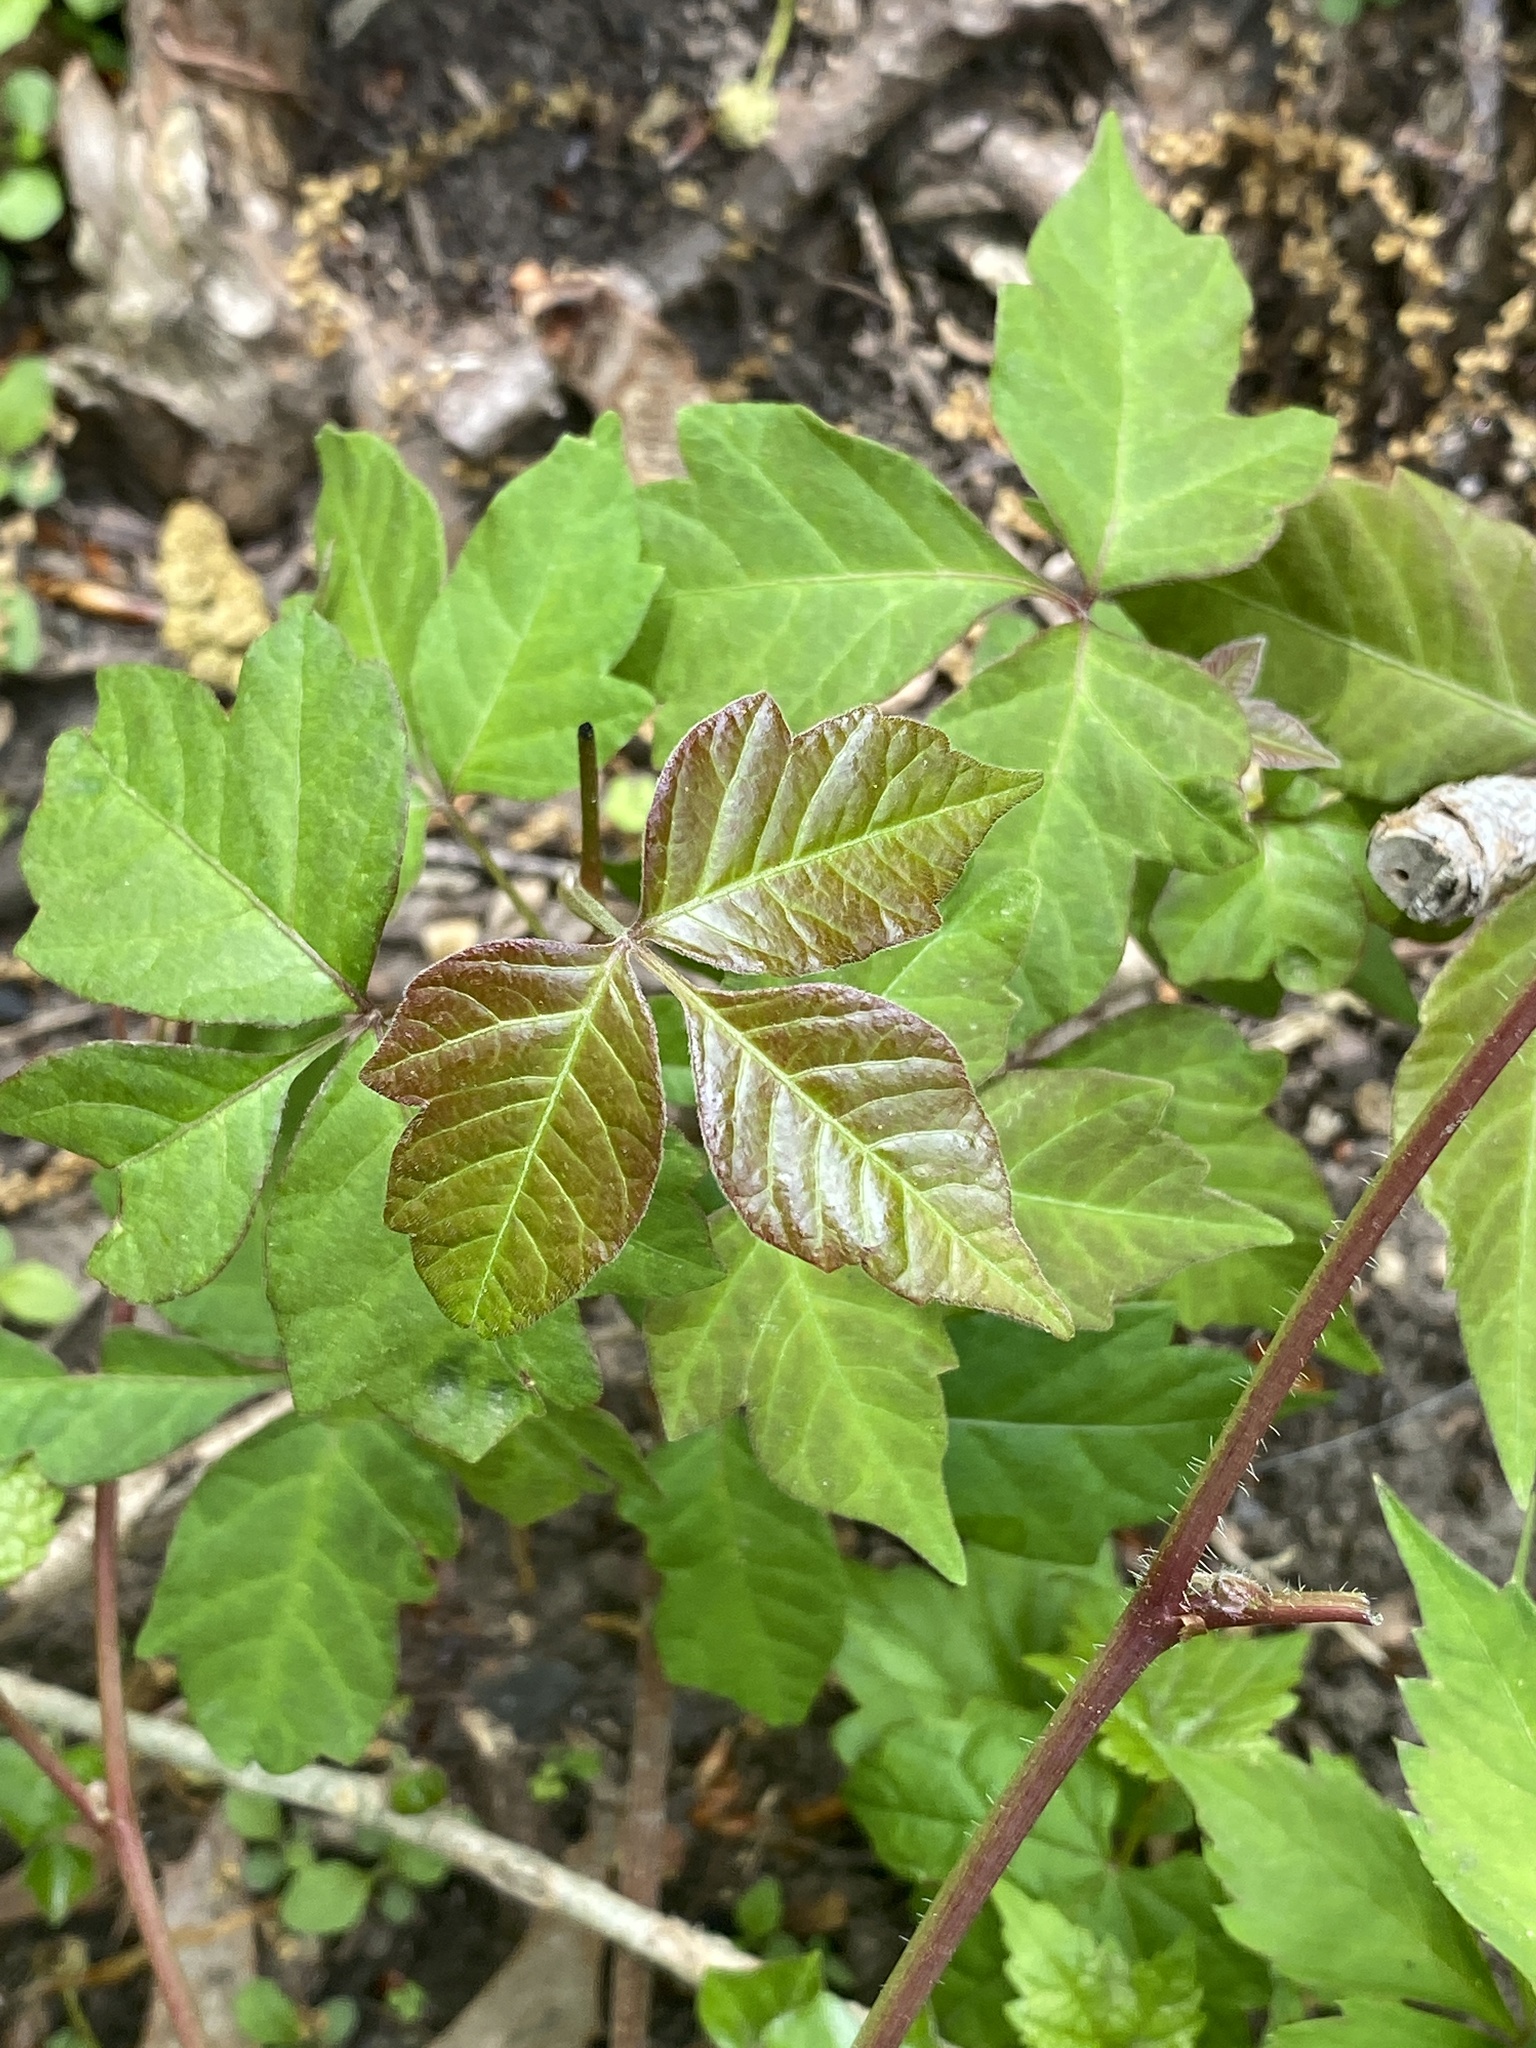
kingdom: Plantae
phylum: Tracheophyta
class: Magnoliopsida
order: Sapindales
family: Anacardiaceae
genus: Toxicodendron
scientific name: Toxicodendron radicans
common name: Poison ivy
